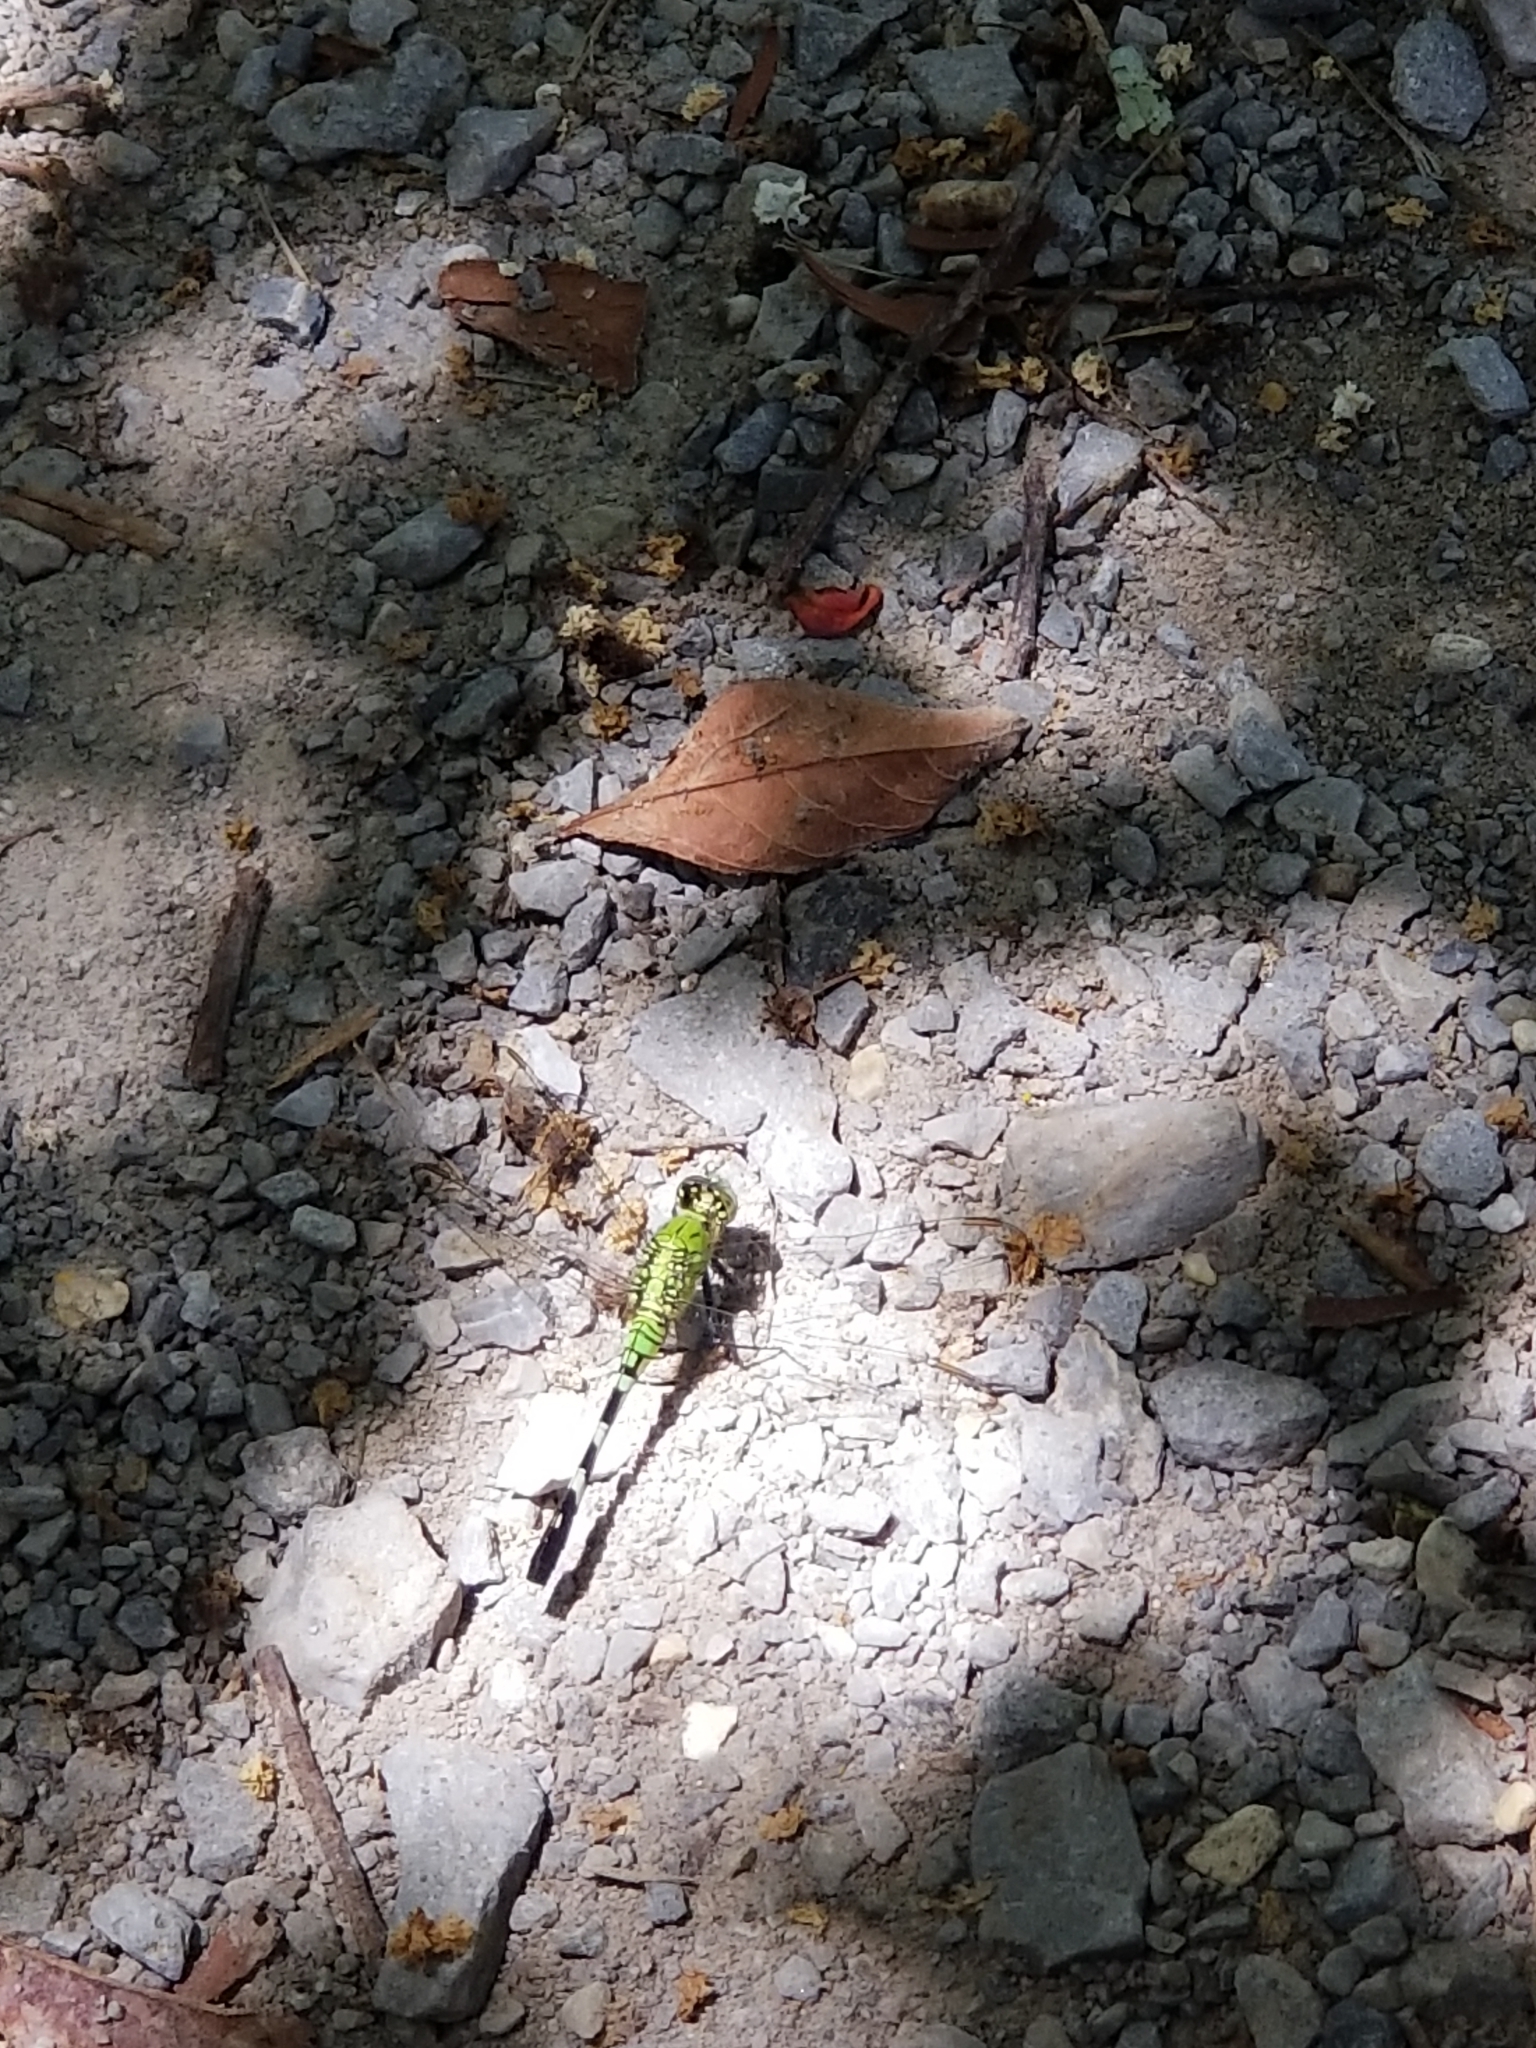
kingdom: Animalia
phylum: Arthropoda
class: Insecta
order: Odonata
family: Libellulidae
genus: Erythemis
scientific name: Erythemis simplicicollis
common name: Eastern pondhawk
